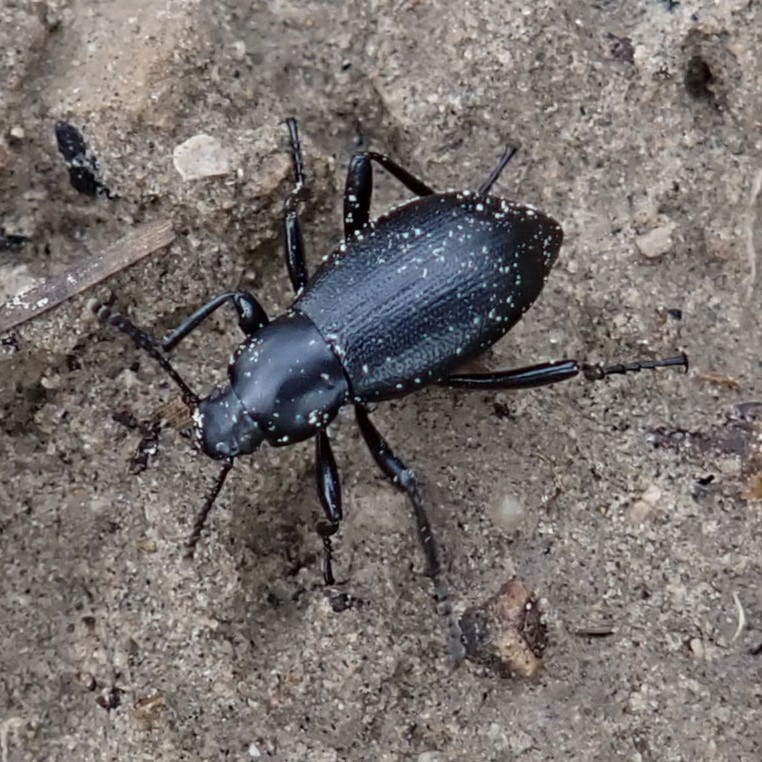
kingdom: Animalia
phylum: Arthropoda
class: Insecta
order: Coleoptera
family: Tenebrionidae
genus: Eleodes
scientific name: Eleodes extricata
